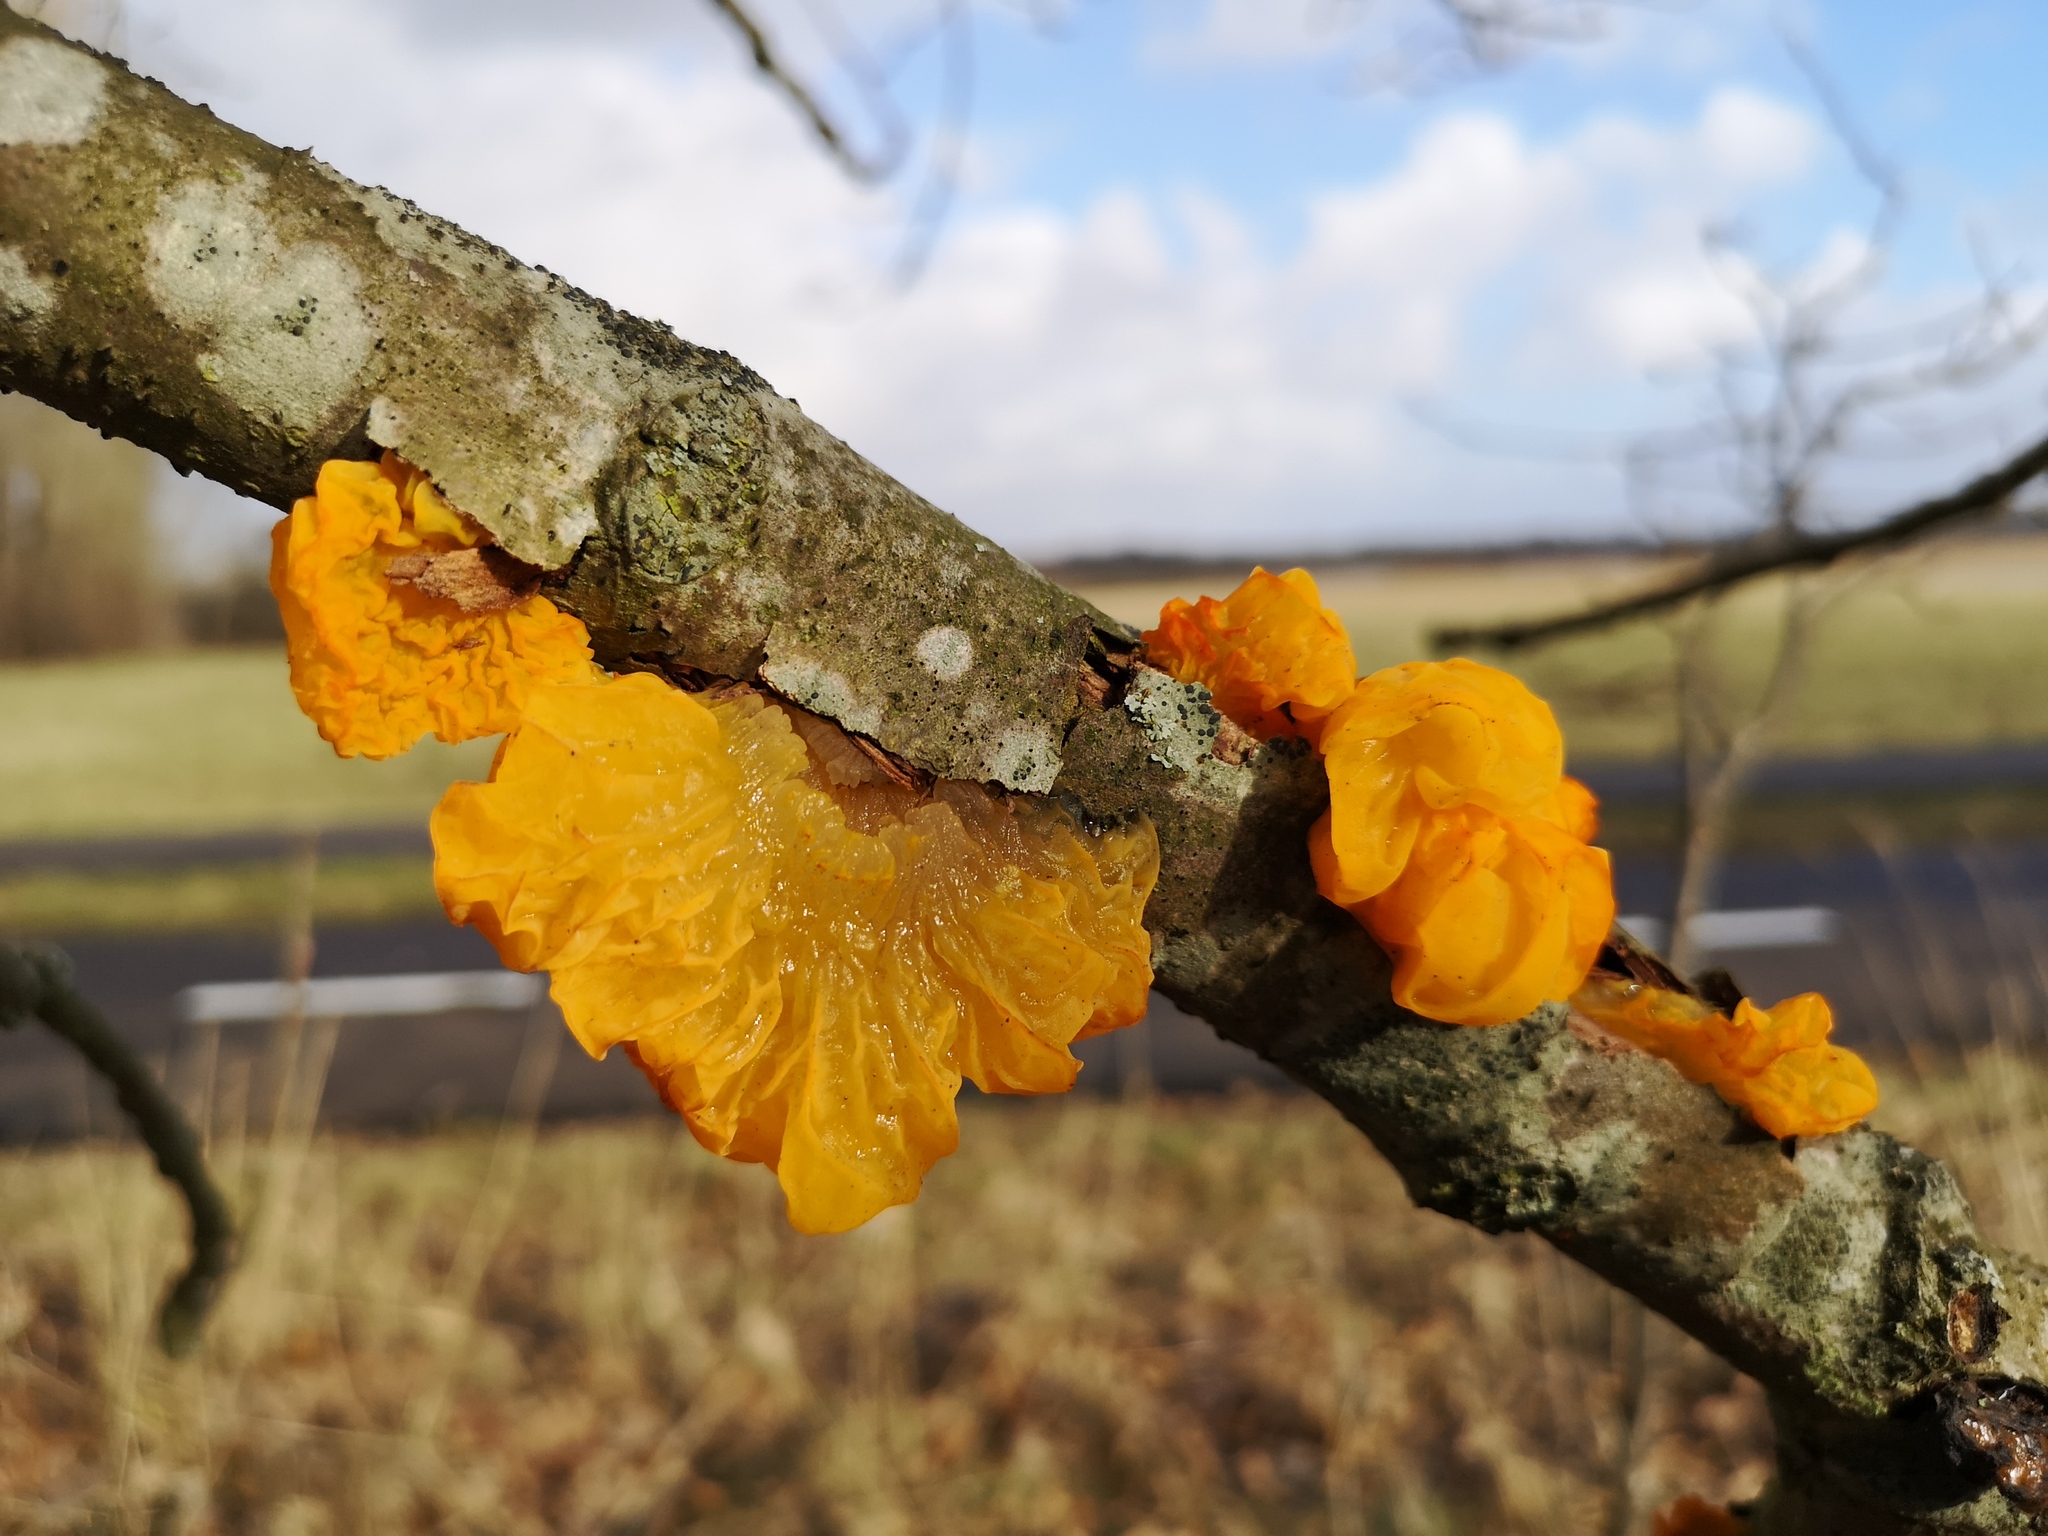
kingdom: Fungi
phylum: Basidiomycota
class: Tremellomycetes
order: Tremellales
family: Tremellaceae
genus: Tremella
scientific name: Tremella mesenterica
